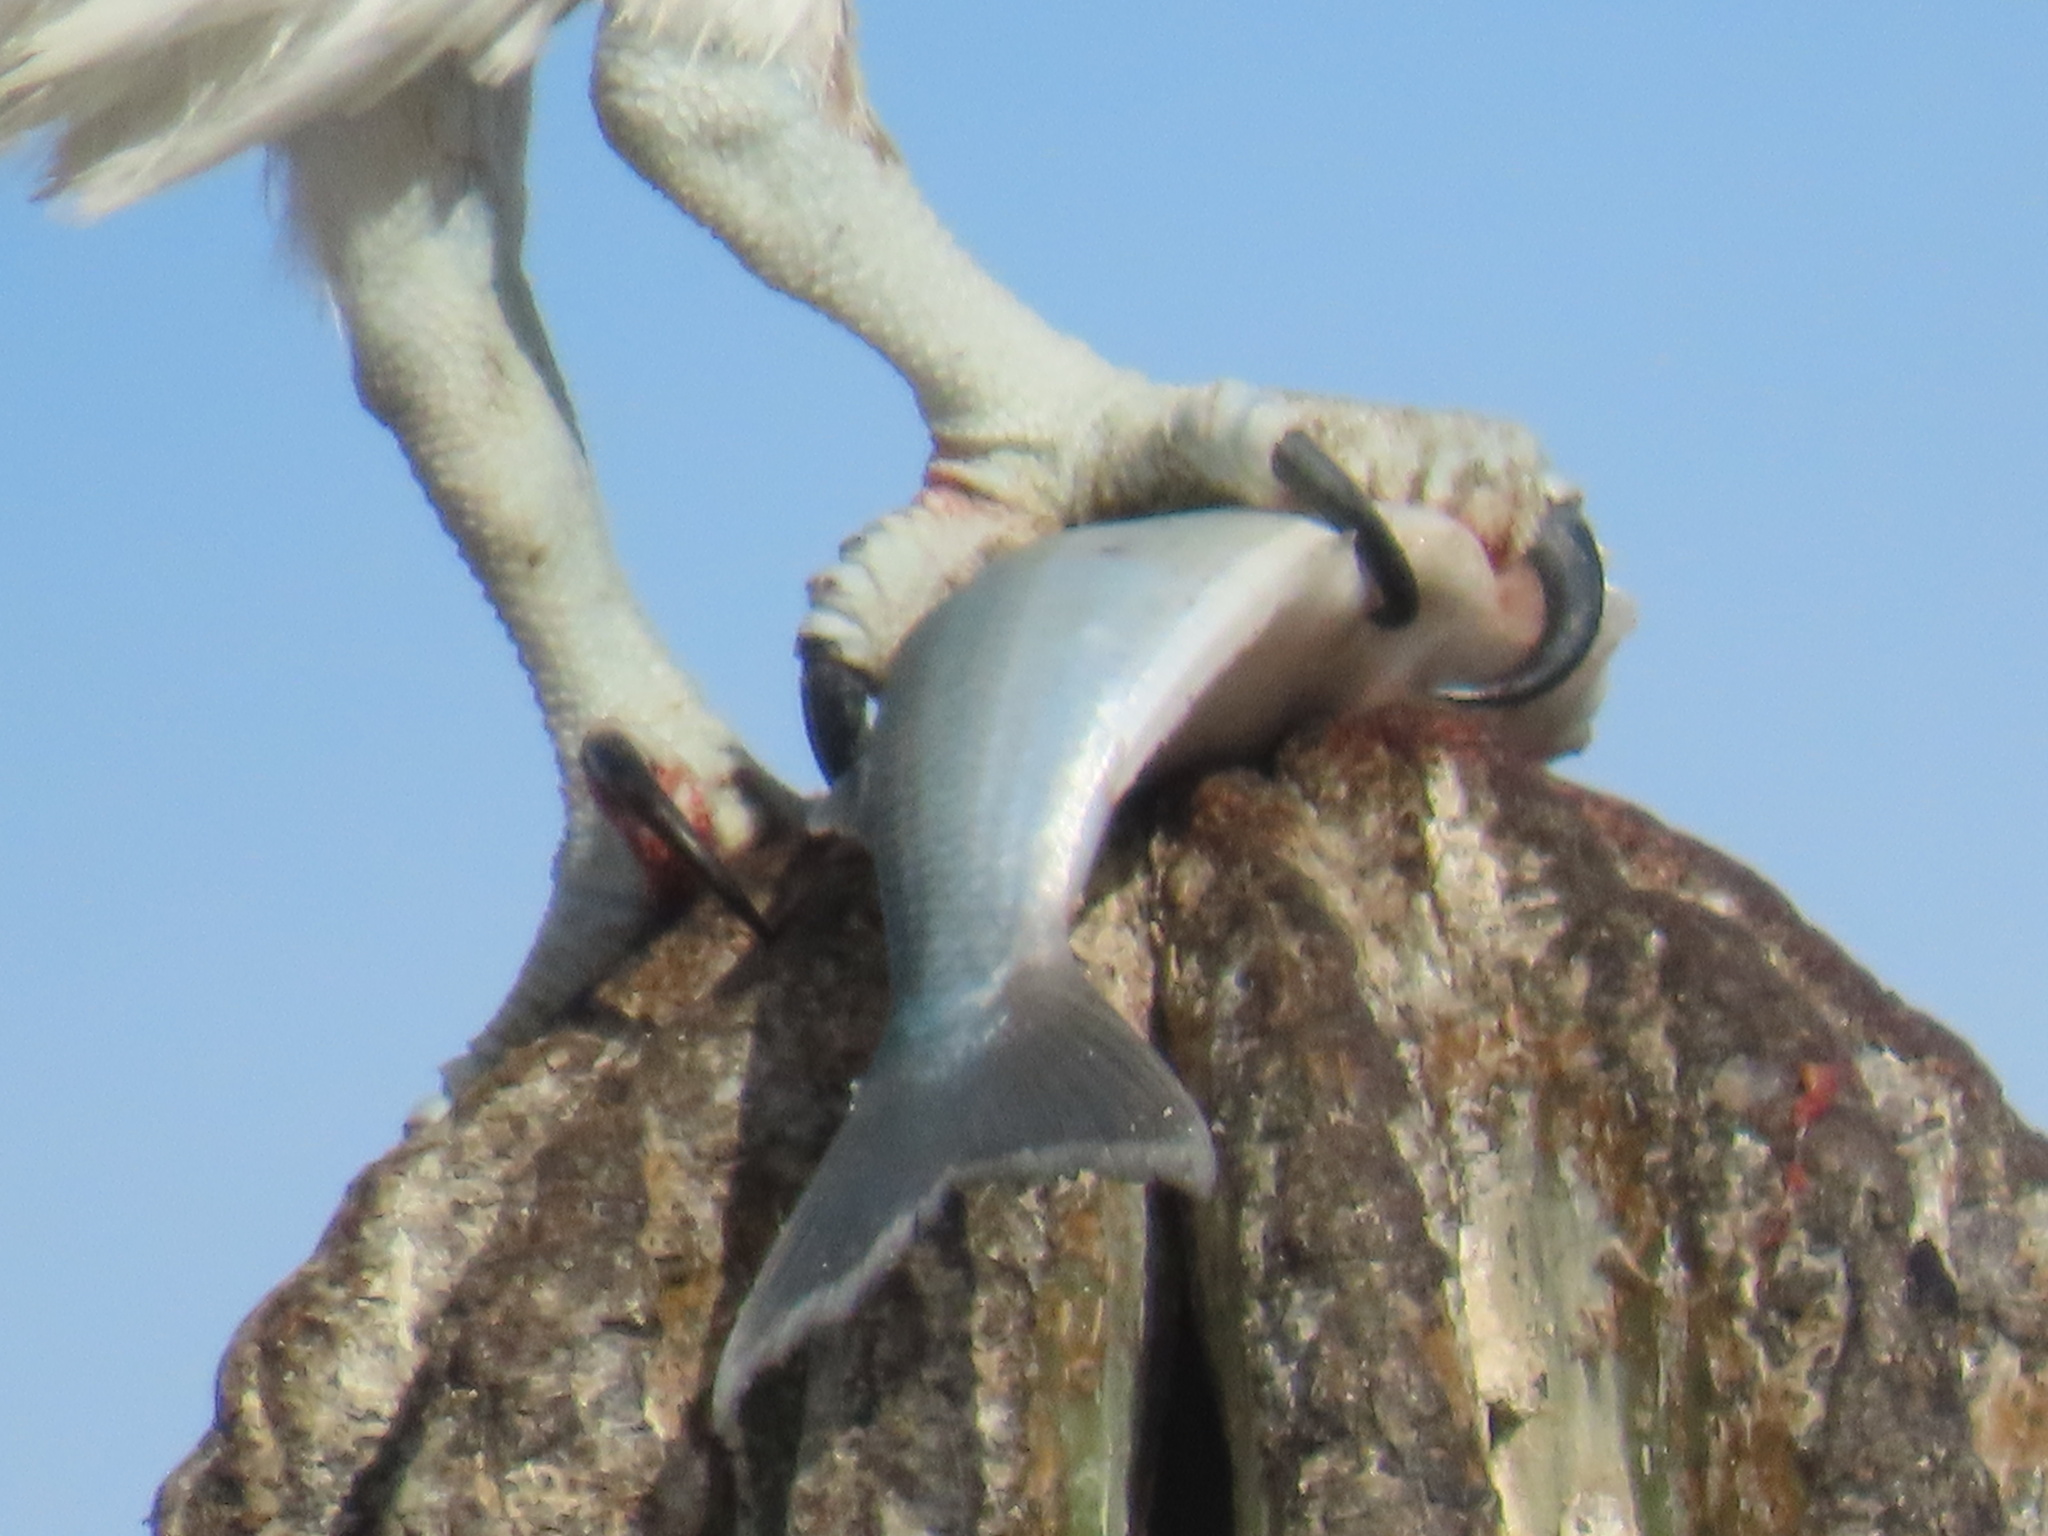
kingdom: Animalia
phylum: Chordata
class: Aves
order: Accipitriformes
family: Pandionidae
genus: Pandion
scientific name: Pandion haliaetus
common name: Osprey
